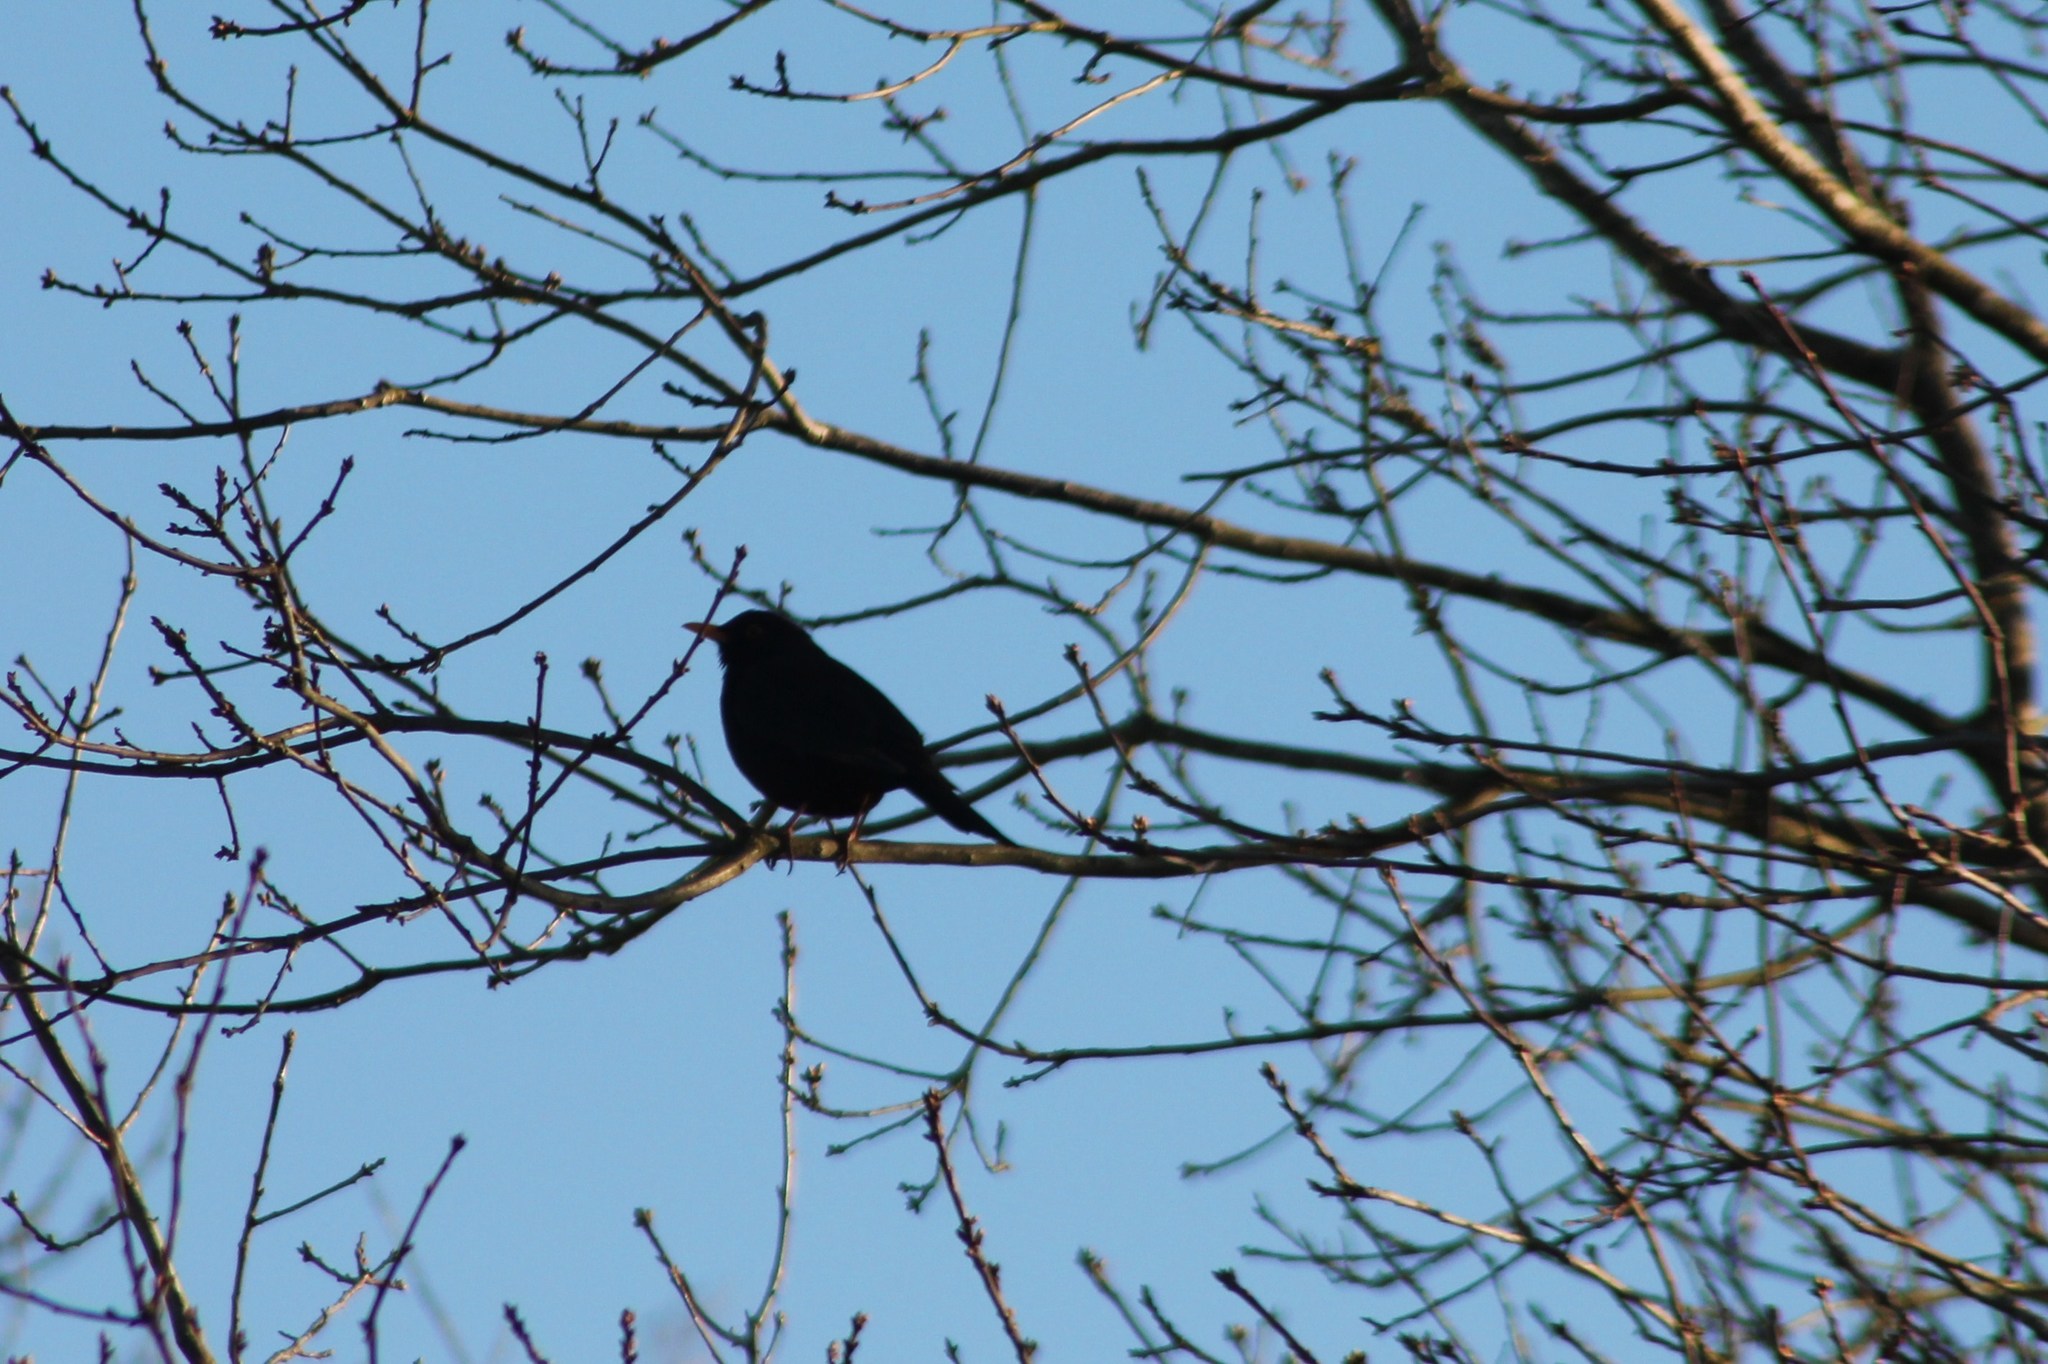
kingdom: Animalia
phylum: Chordata
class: Aves
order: Passeriformes
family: Turdidae
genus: Turdus
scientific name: Turdus merula
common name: Common blackbird
